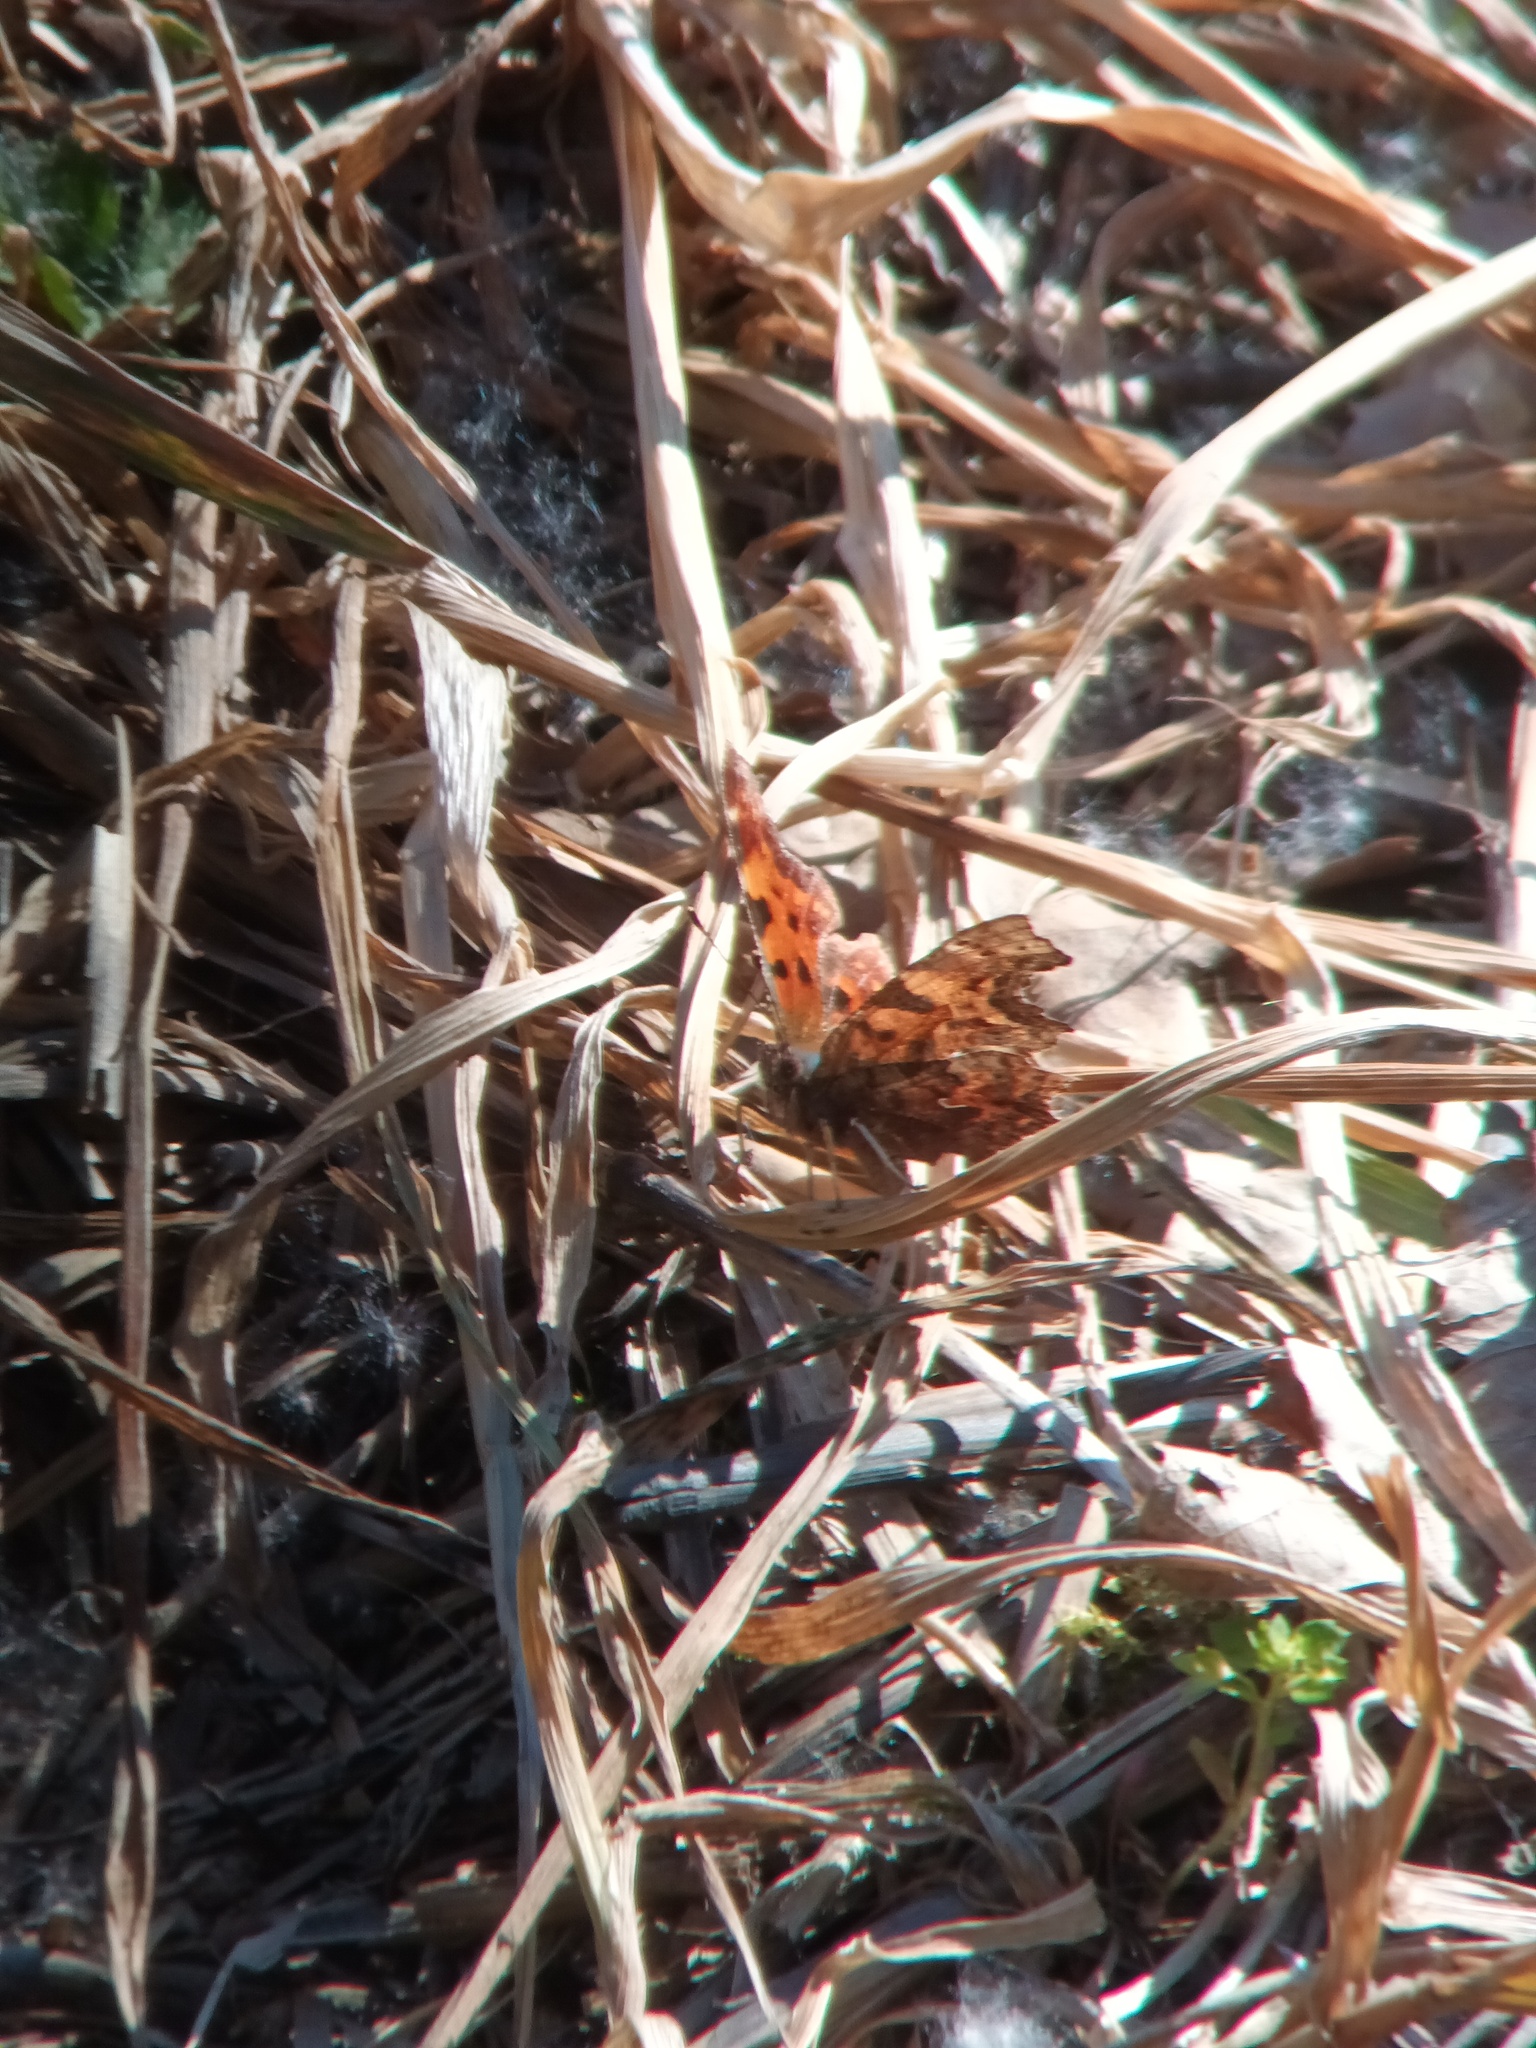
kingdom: Animalia
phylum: Arthropoda
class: Insecta
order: Lepidoptera
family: Nymphalidae
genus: Polygonia
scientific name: Polygonia c-album
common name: Comma
